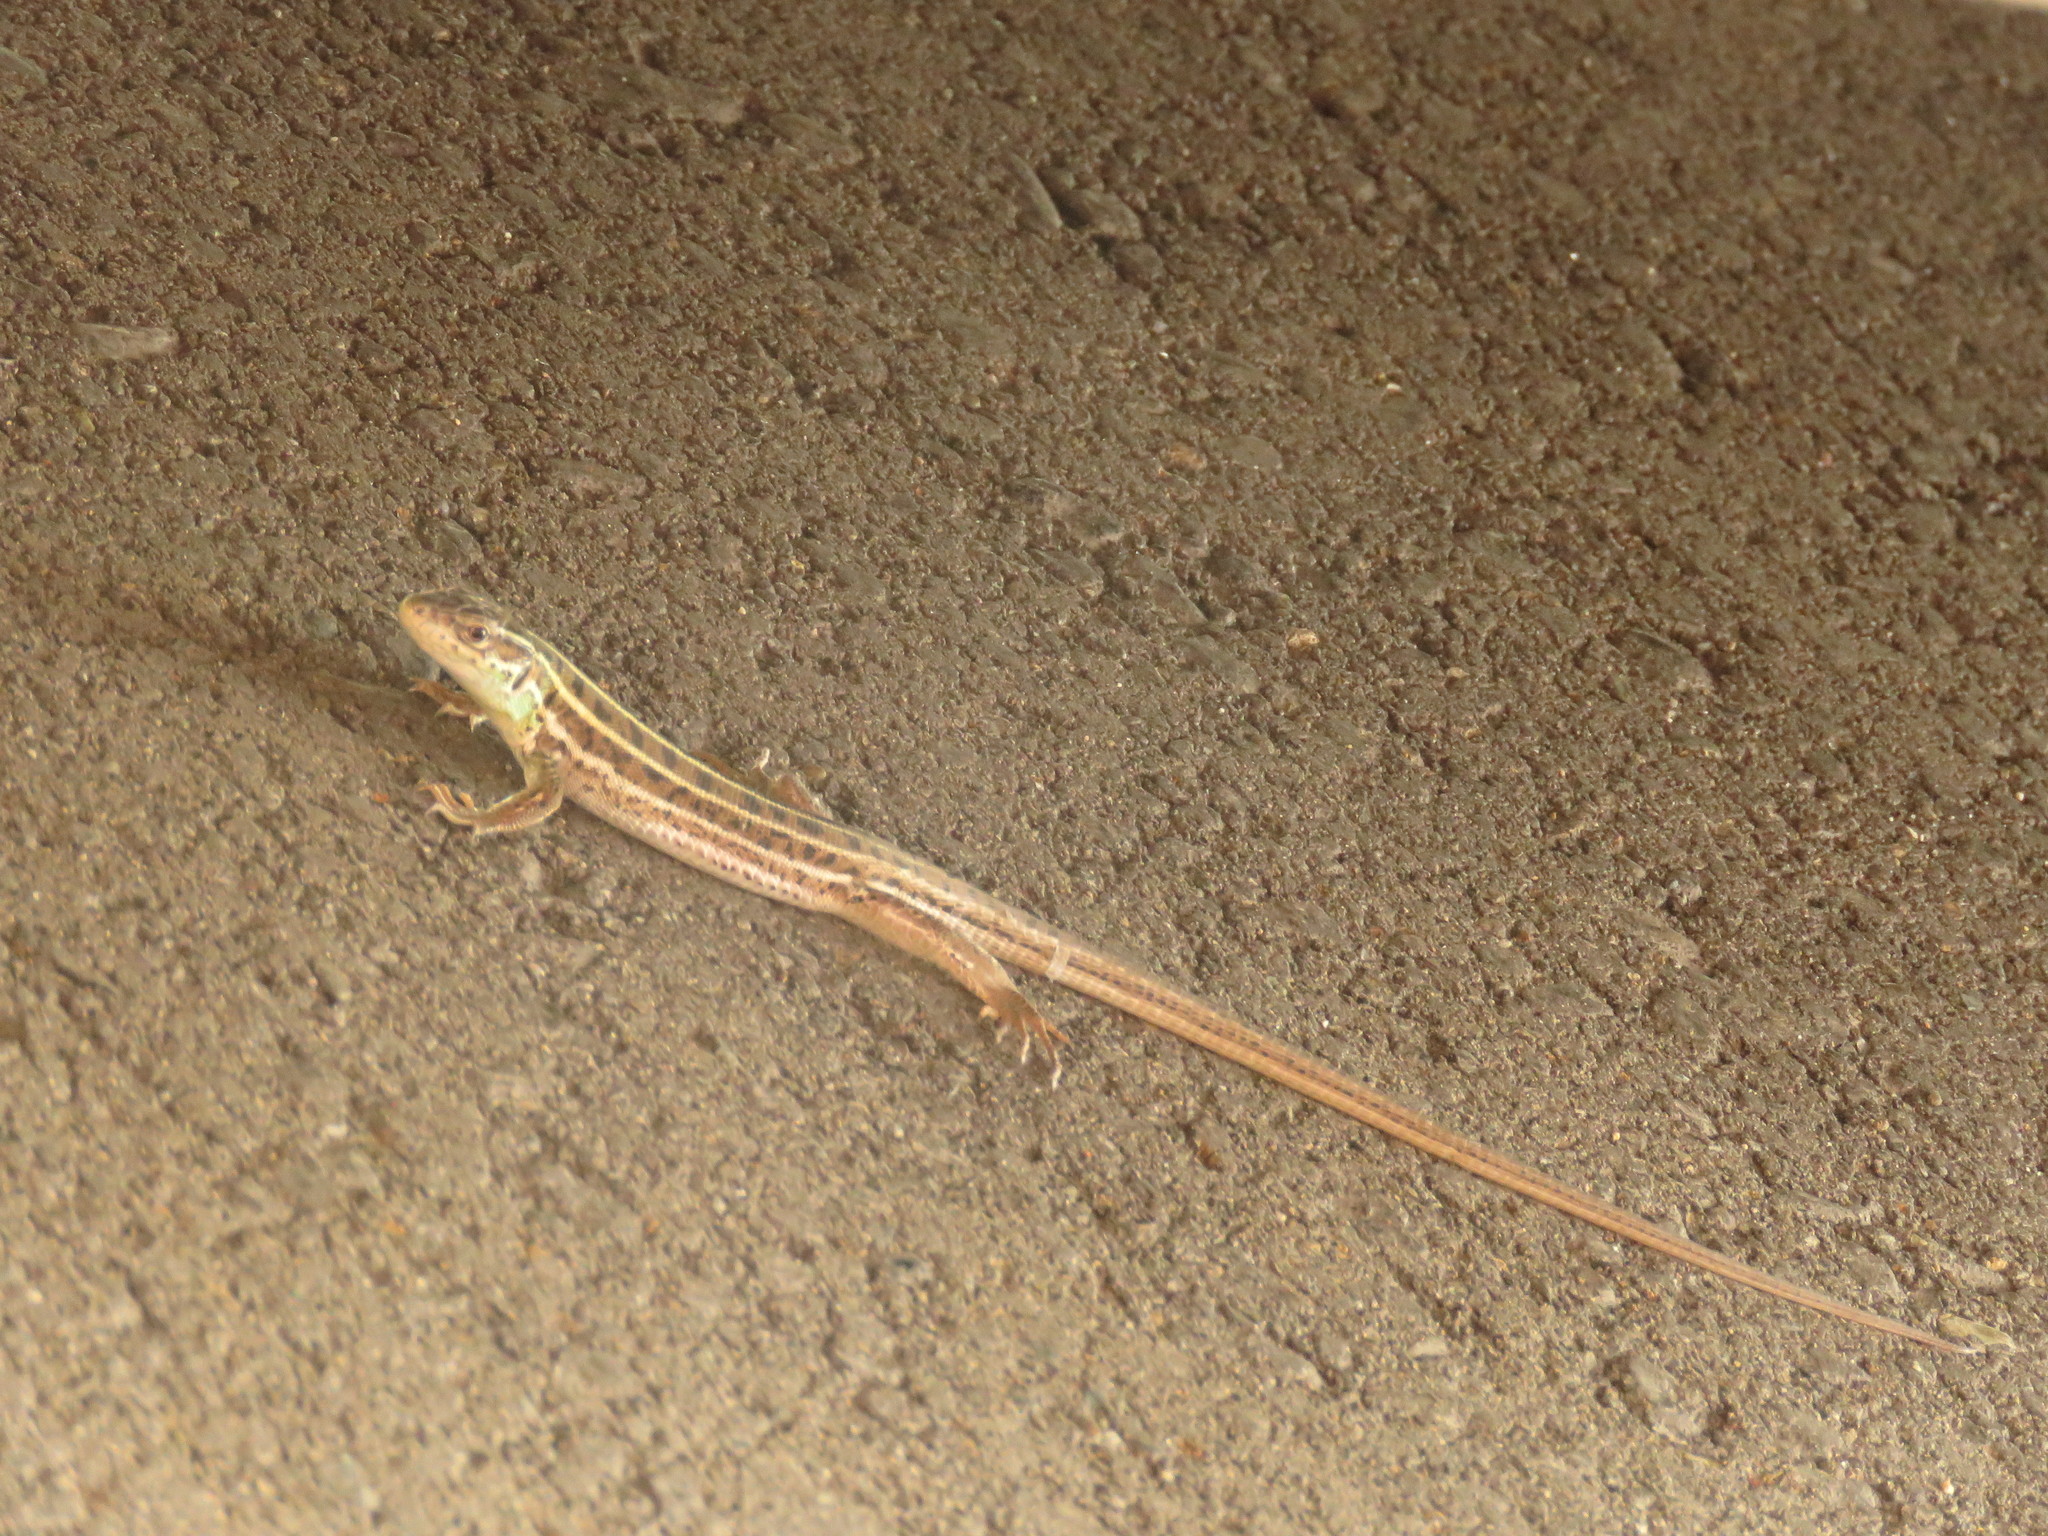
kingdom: Animalia
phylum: Chordata
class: Squamata
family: Lacertidae
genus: Lacerta
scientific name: Lacerta strigata
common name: Caspian green lizard
